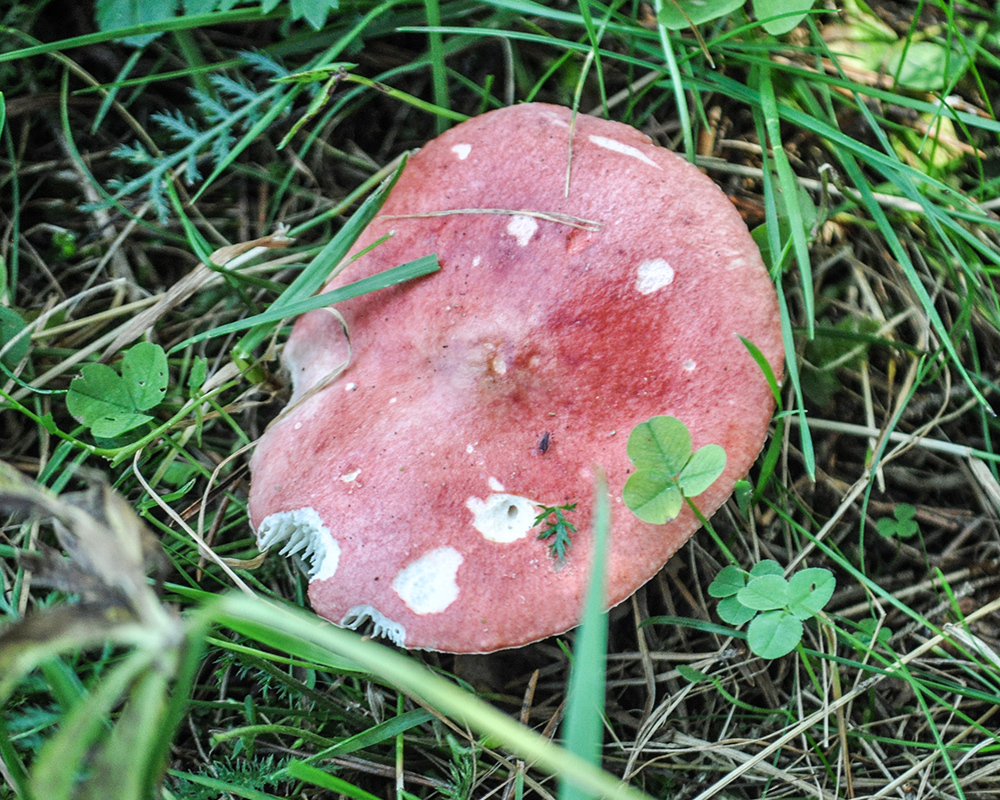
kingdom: Fungi
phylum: Basidiomycota
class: Agaricomycetes
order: Russulales
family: Russulaceae
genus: Russula
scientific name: Russula sanguinea
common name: Bloody brittlegill
